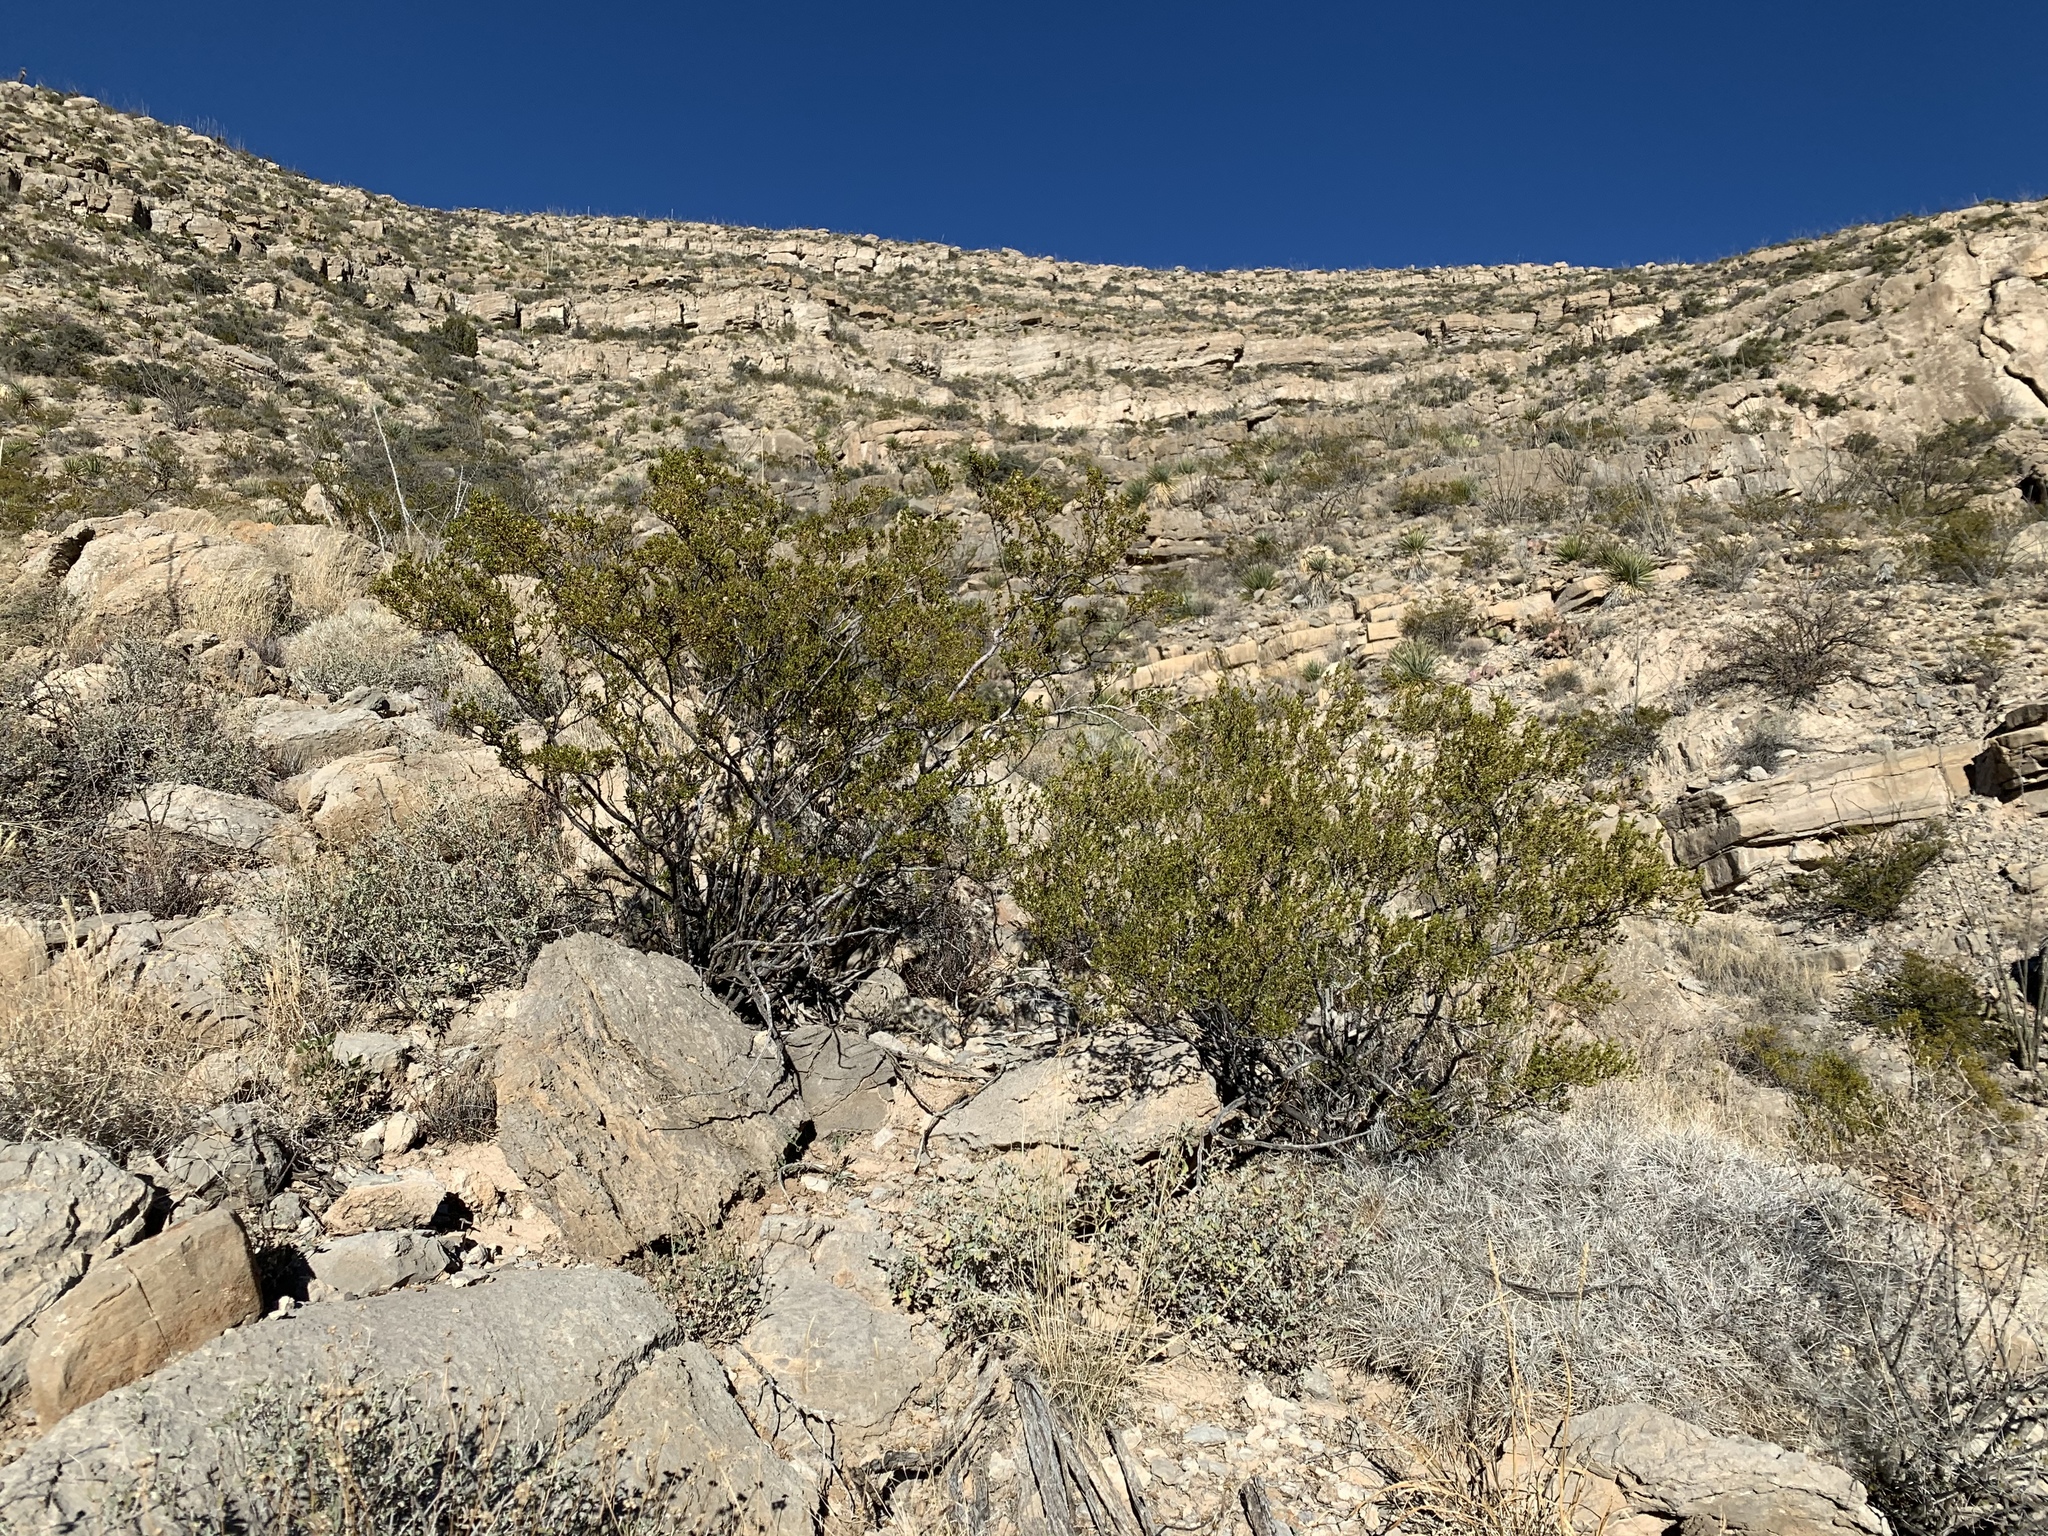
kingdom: Plantae
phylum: Tracheophyta
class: Magnoliopsida
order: Zygophyllales
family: Zygophyllaceae
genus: Larrea
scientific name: Larrea tridentata
